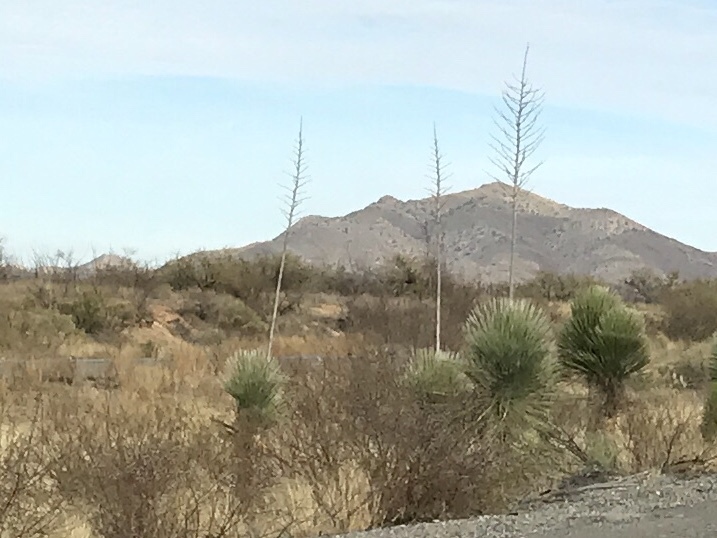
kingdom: Plantae
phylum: Tracheophyta
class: Liliopsida
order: Asparagales
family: Asparagaceae
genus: Yucca
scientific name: Yucca elata
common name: Palmella
